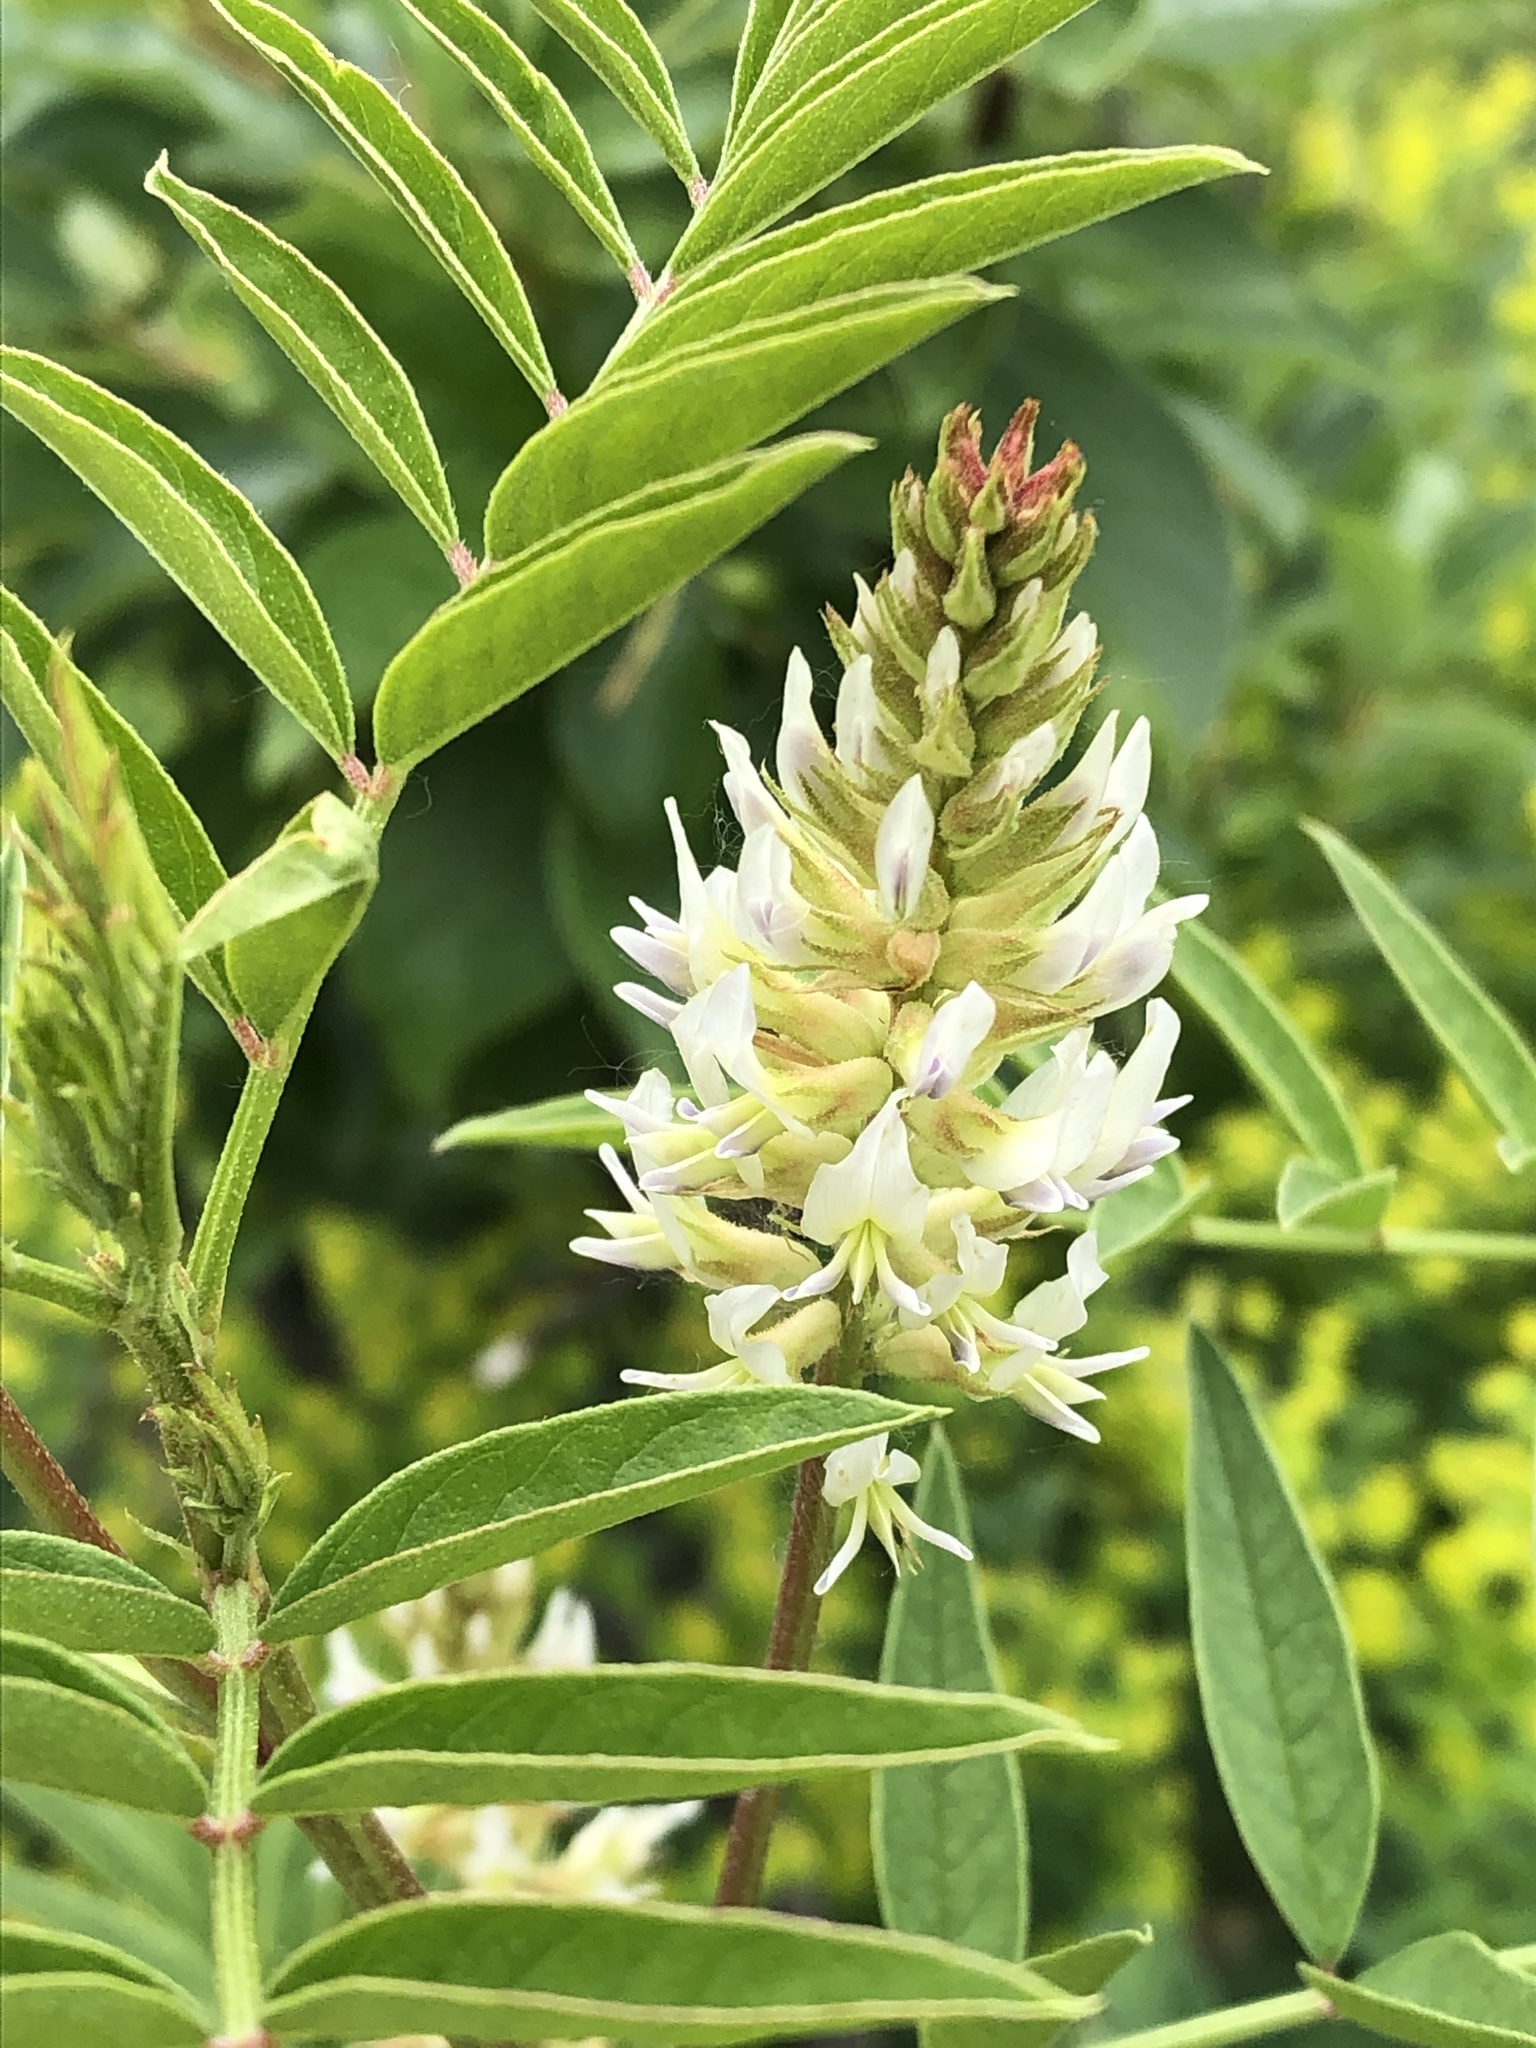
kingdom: Plantae
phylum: Tracheophyta
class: Magnoliopsida
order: Fabales
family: Fabaceae
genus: Glycyrrhiza
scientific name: Glycyrrhiza lepidota
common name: American liquorice
